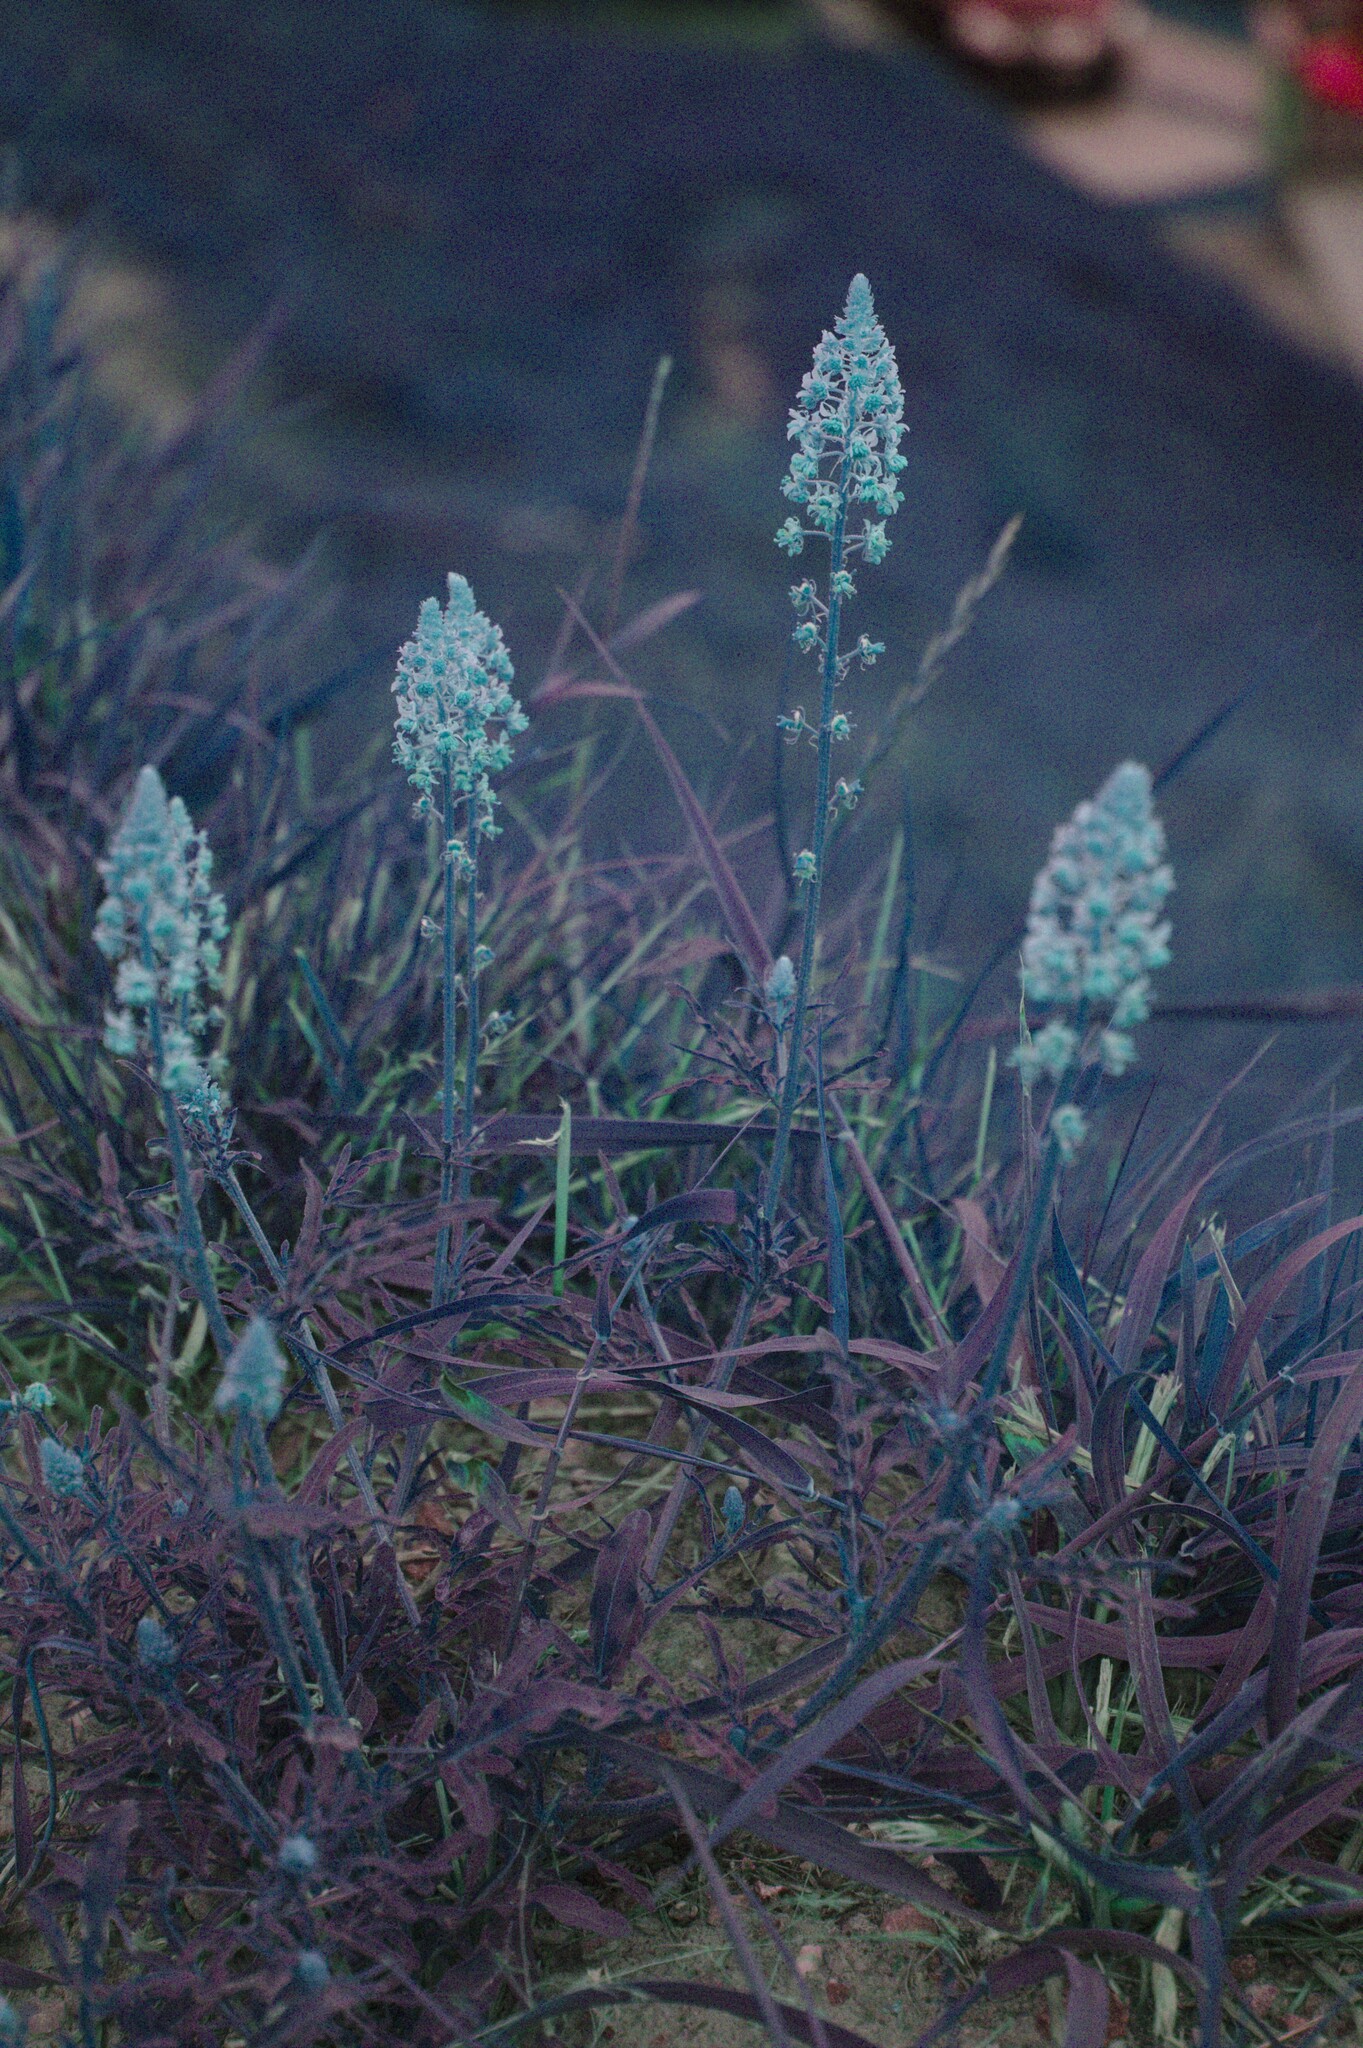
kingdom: Plantae
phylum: Tracheophyta
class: Magnoliopsida
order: Brassicales
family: Resedaceae
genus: Reseda
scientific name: Reseda lutea
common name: Wild mignonette
